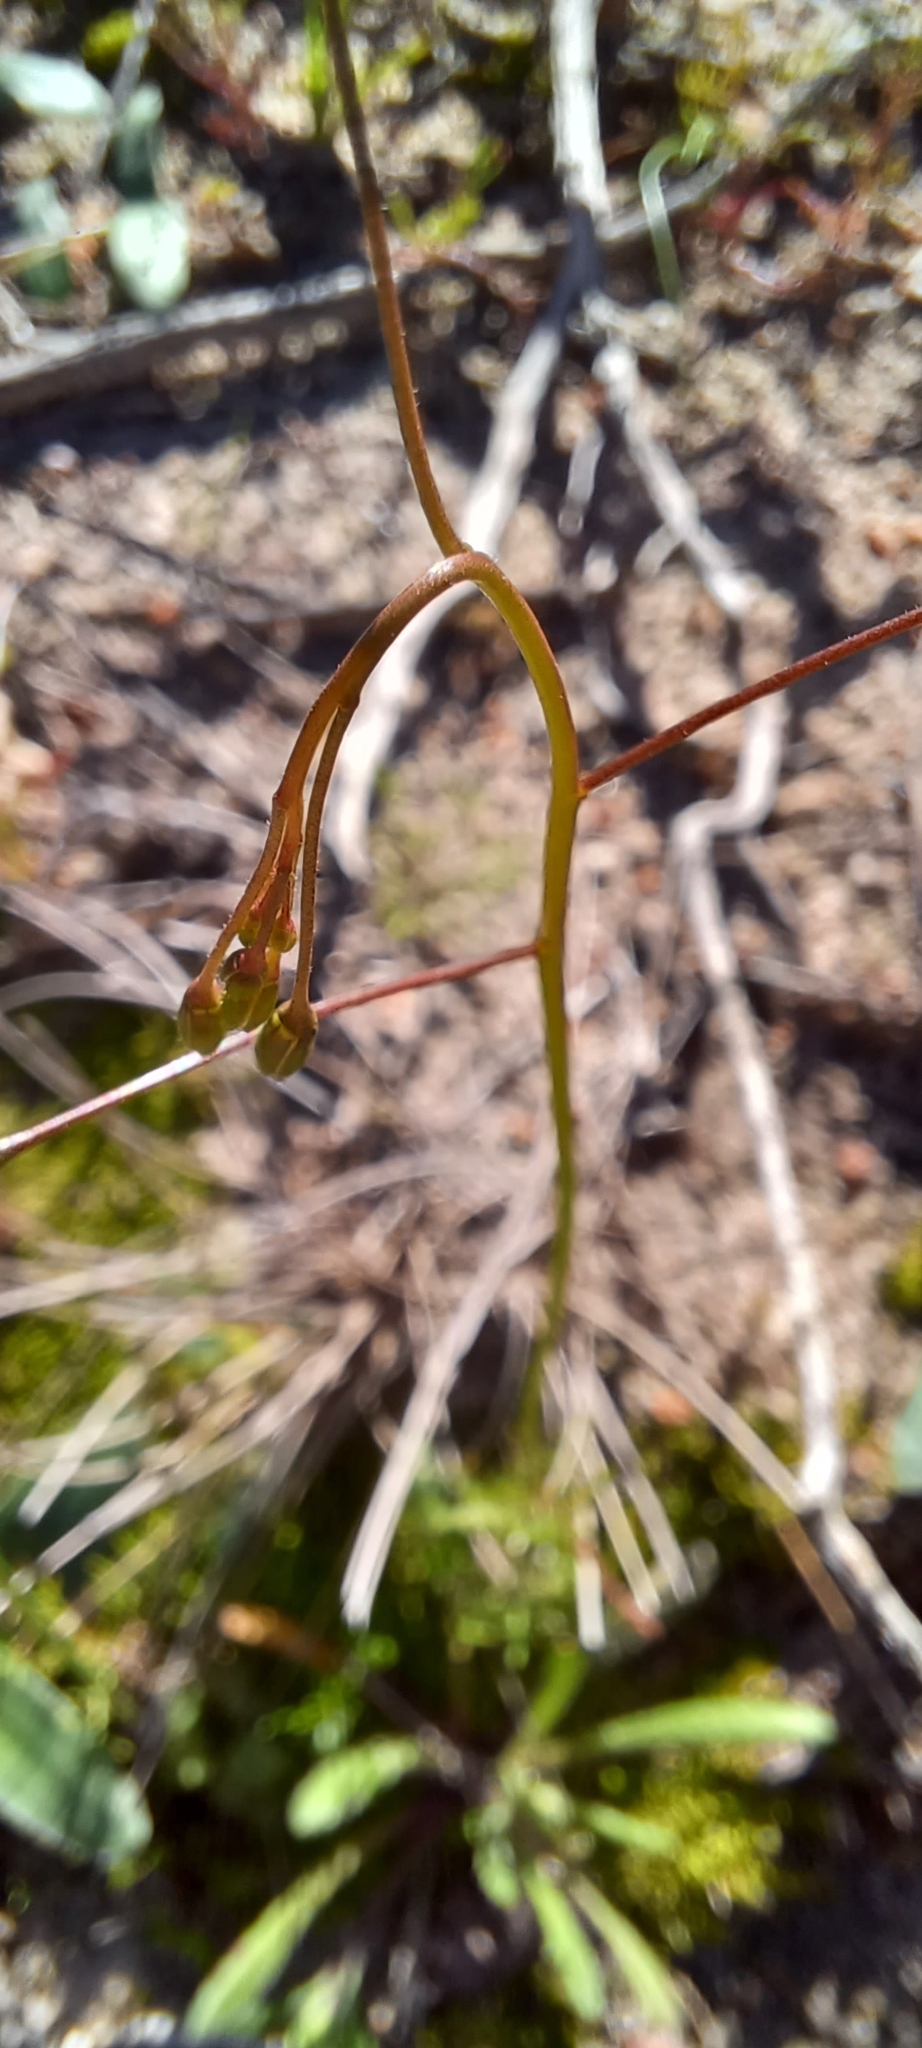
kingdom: Plantae
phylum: Tracheophyta
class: Magnoliopsida
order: Brassicales
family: Brassicaceae
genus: Heliophila
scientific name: Heliophila crithmifolia
